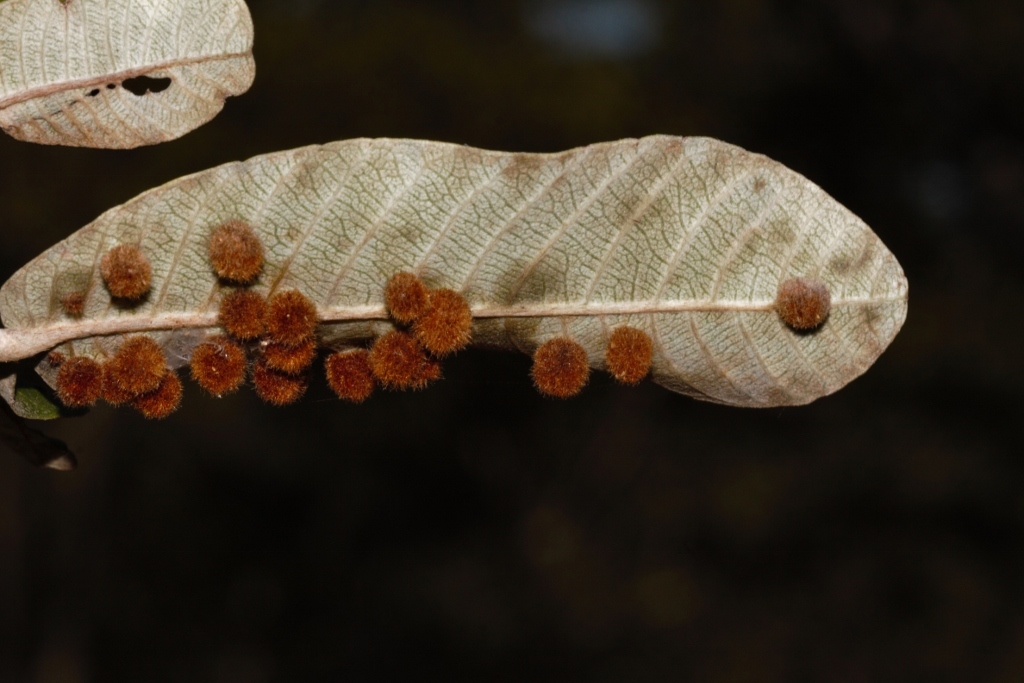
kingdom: Plantae
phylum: Tracheophyta
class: Magnoliopsida
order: Malpighiales
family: Chrysobalanaceae
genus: Parinari
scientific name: Parinari curatellifolia
